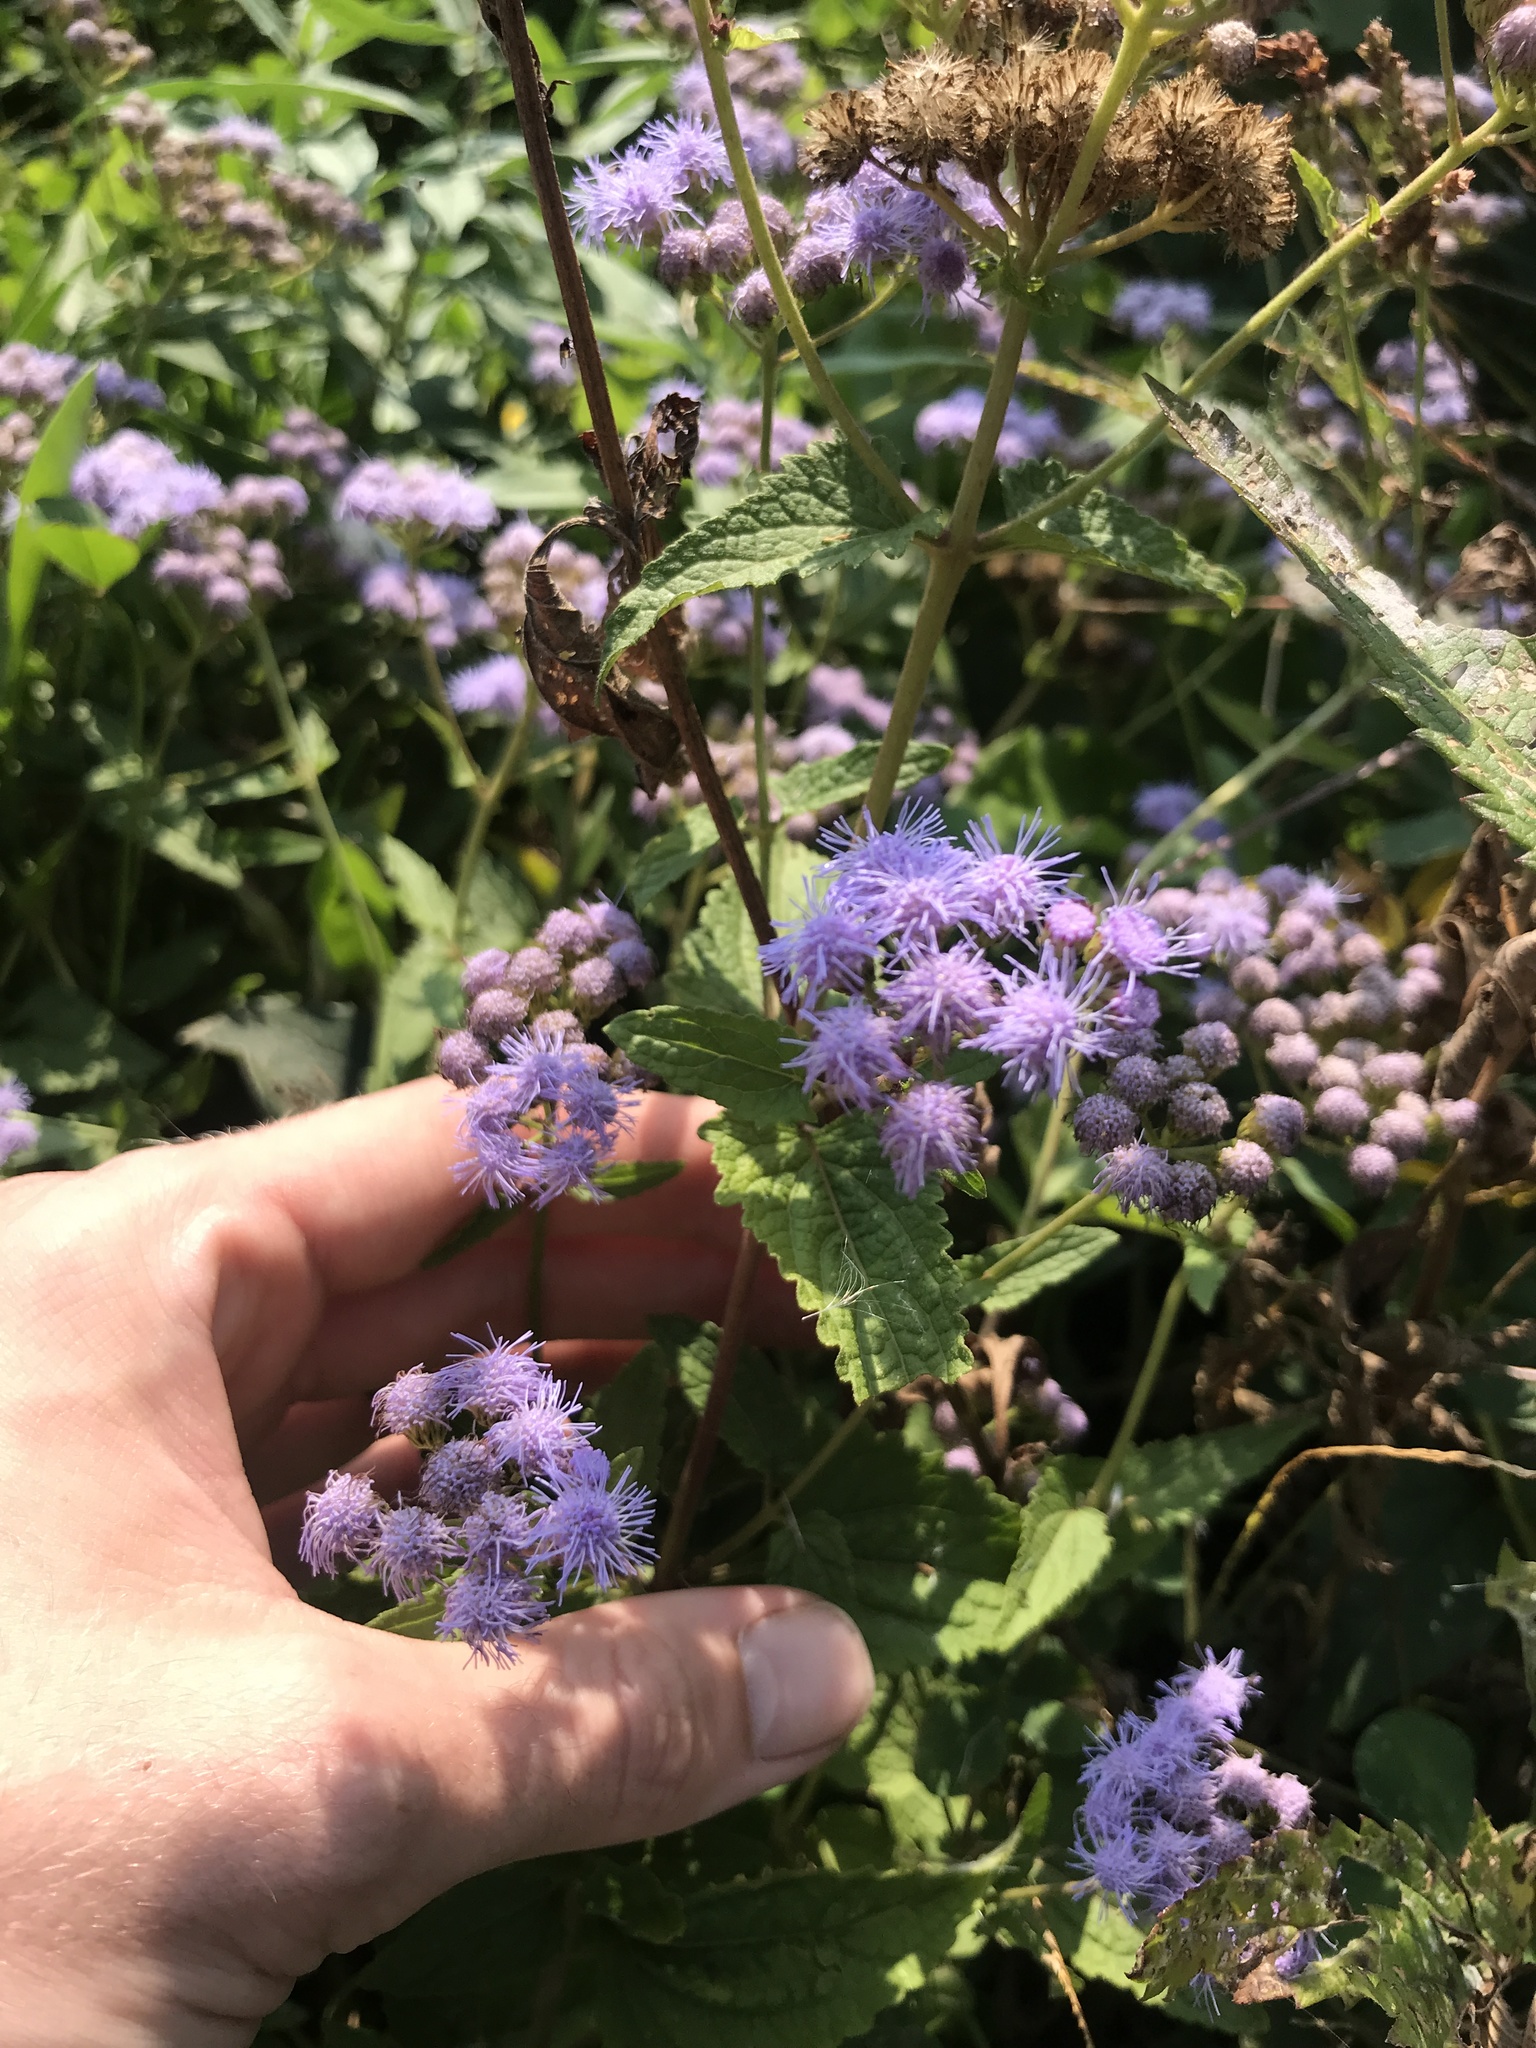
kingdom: Plantae
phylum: Tracheophyta
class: Magnoliopsida
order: Asterales
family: Asteraceae
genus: Conoclinium
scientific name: Conoclinium coelestinum
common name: Blue mistflower
